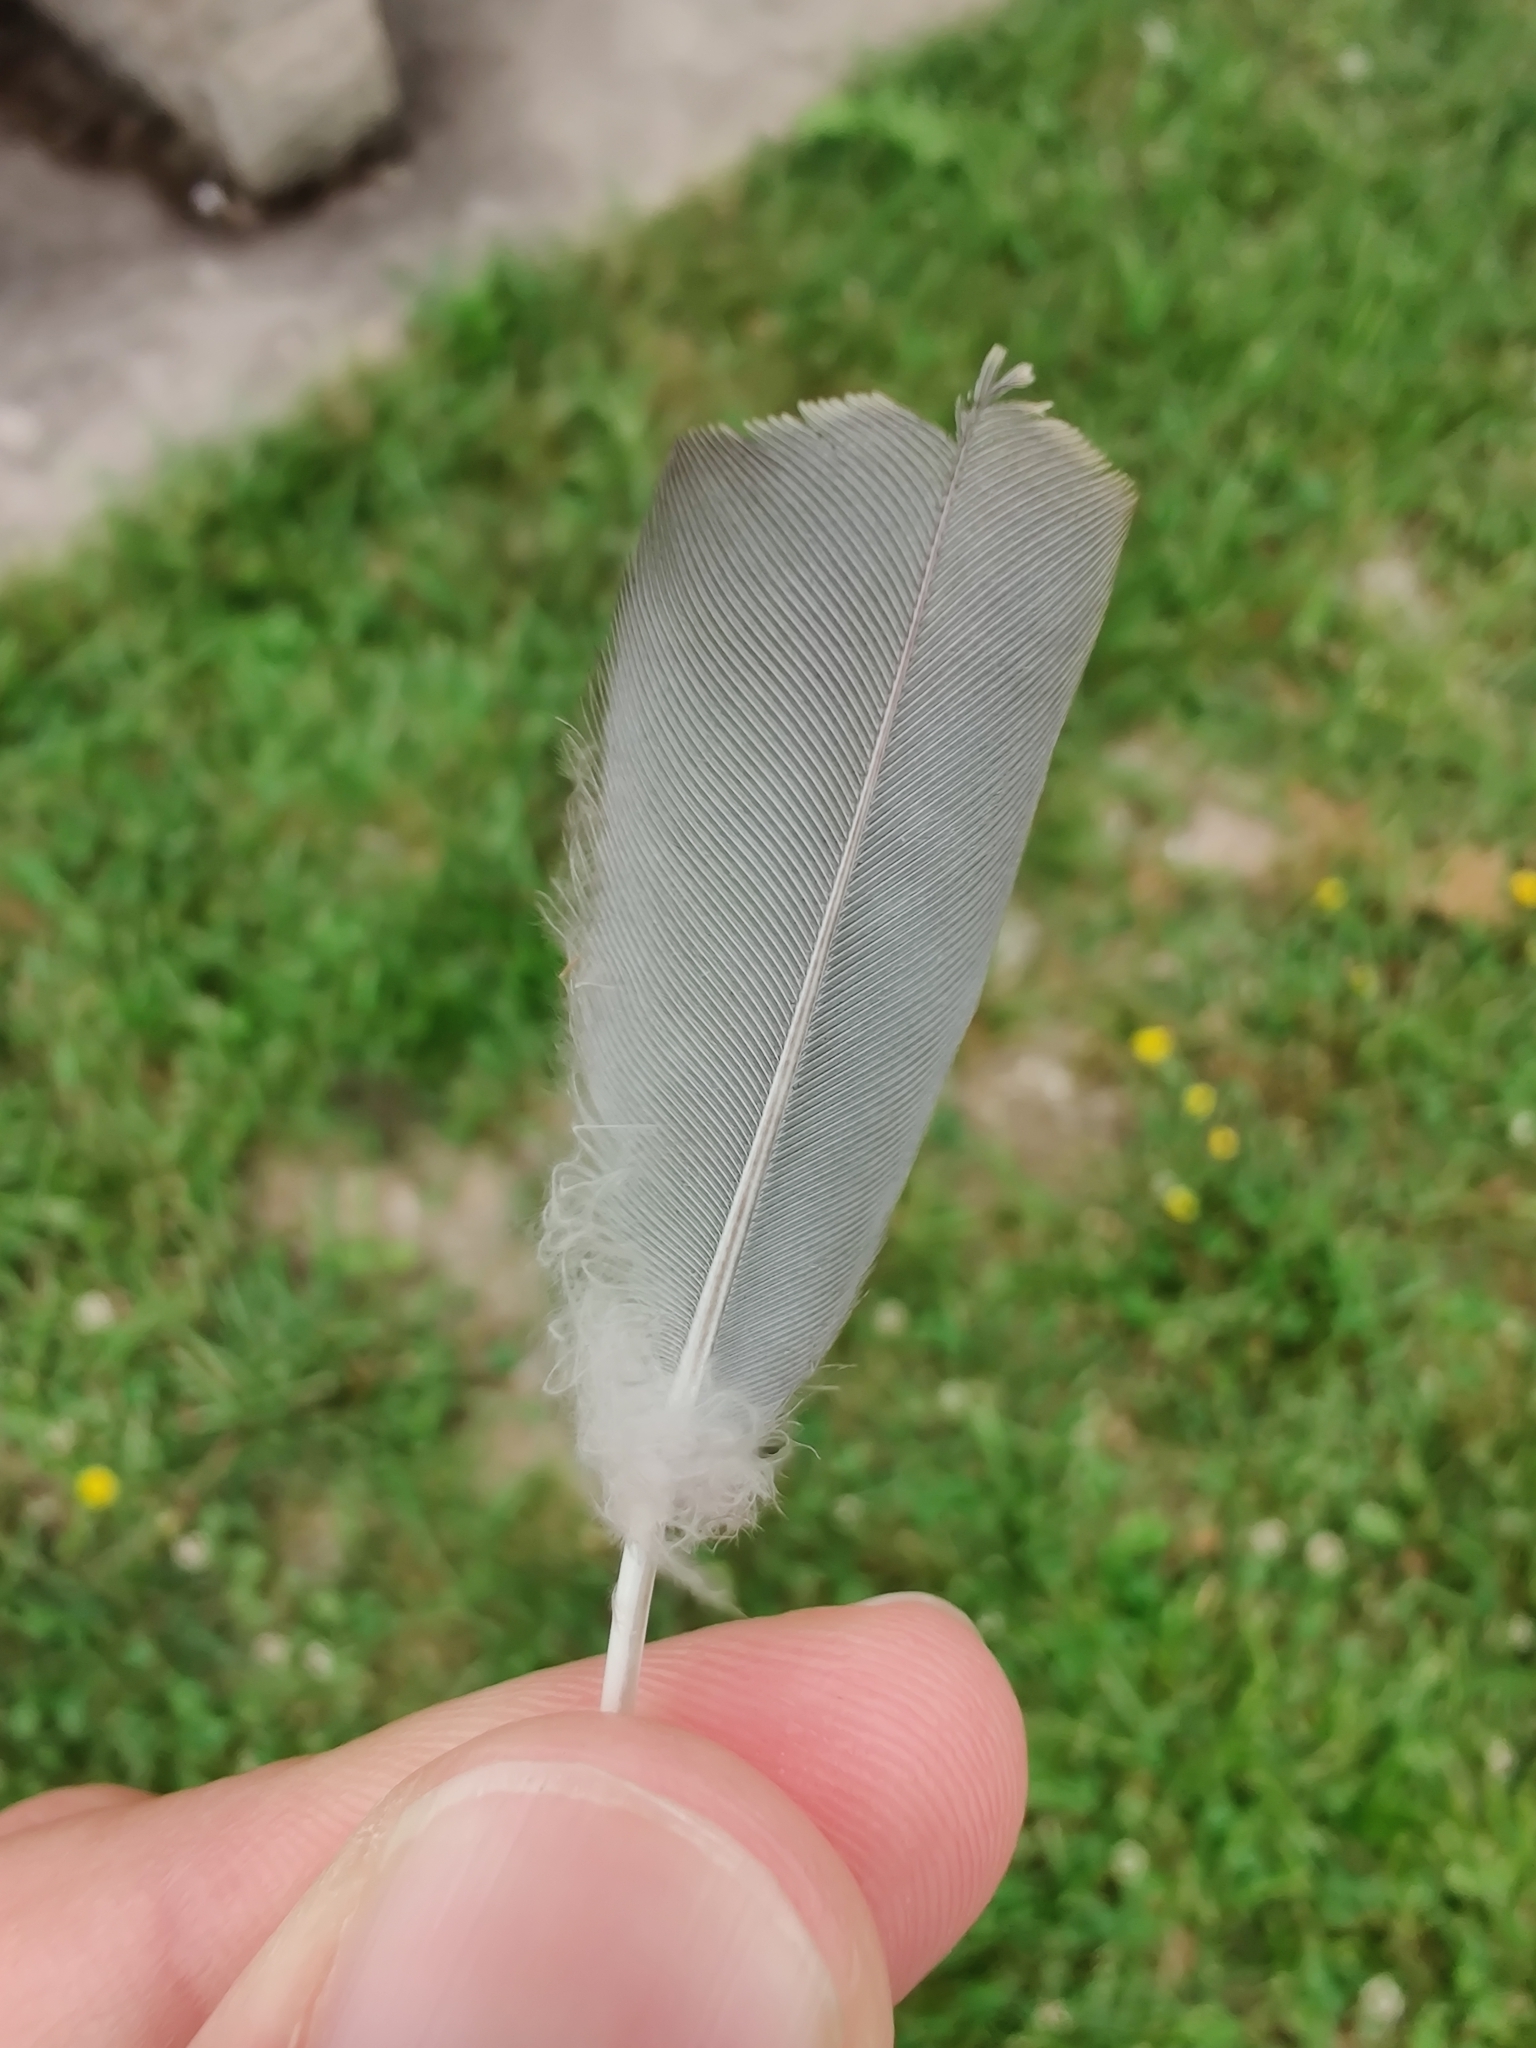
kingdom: Animalia
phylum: Chordata
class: Aves
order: Columbiformes
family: Columbidae
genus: Zenaida
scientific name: Zenaida macroura
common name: Mourning dove
